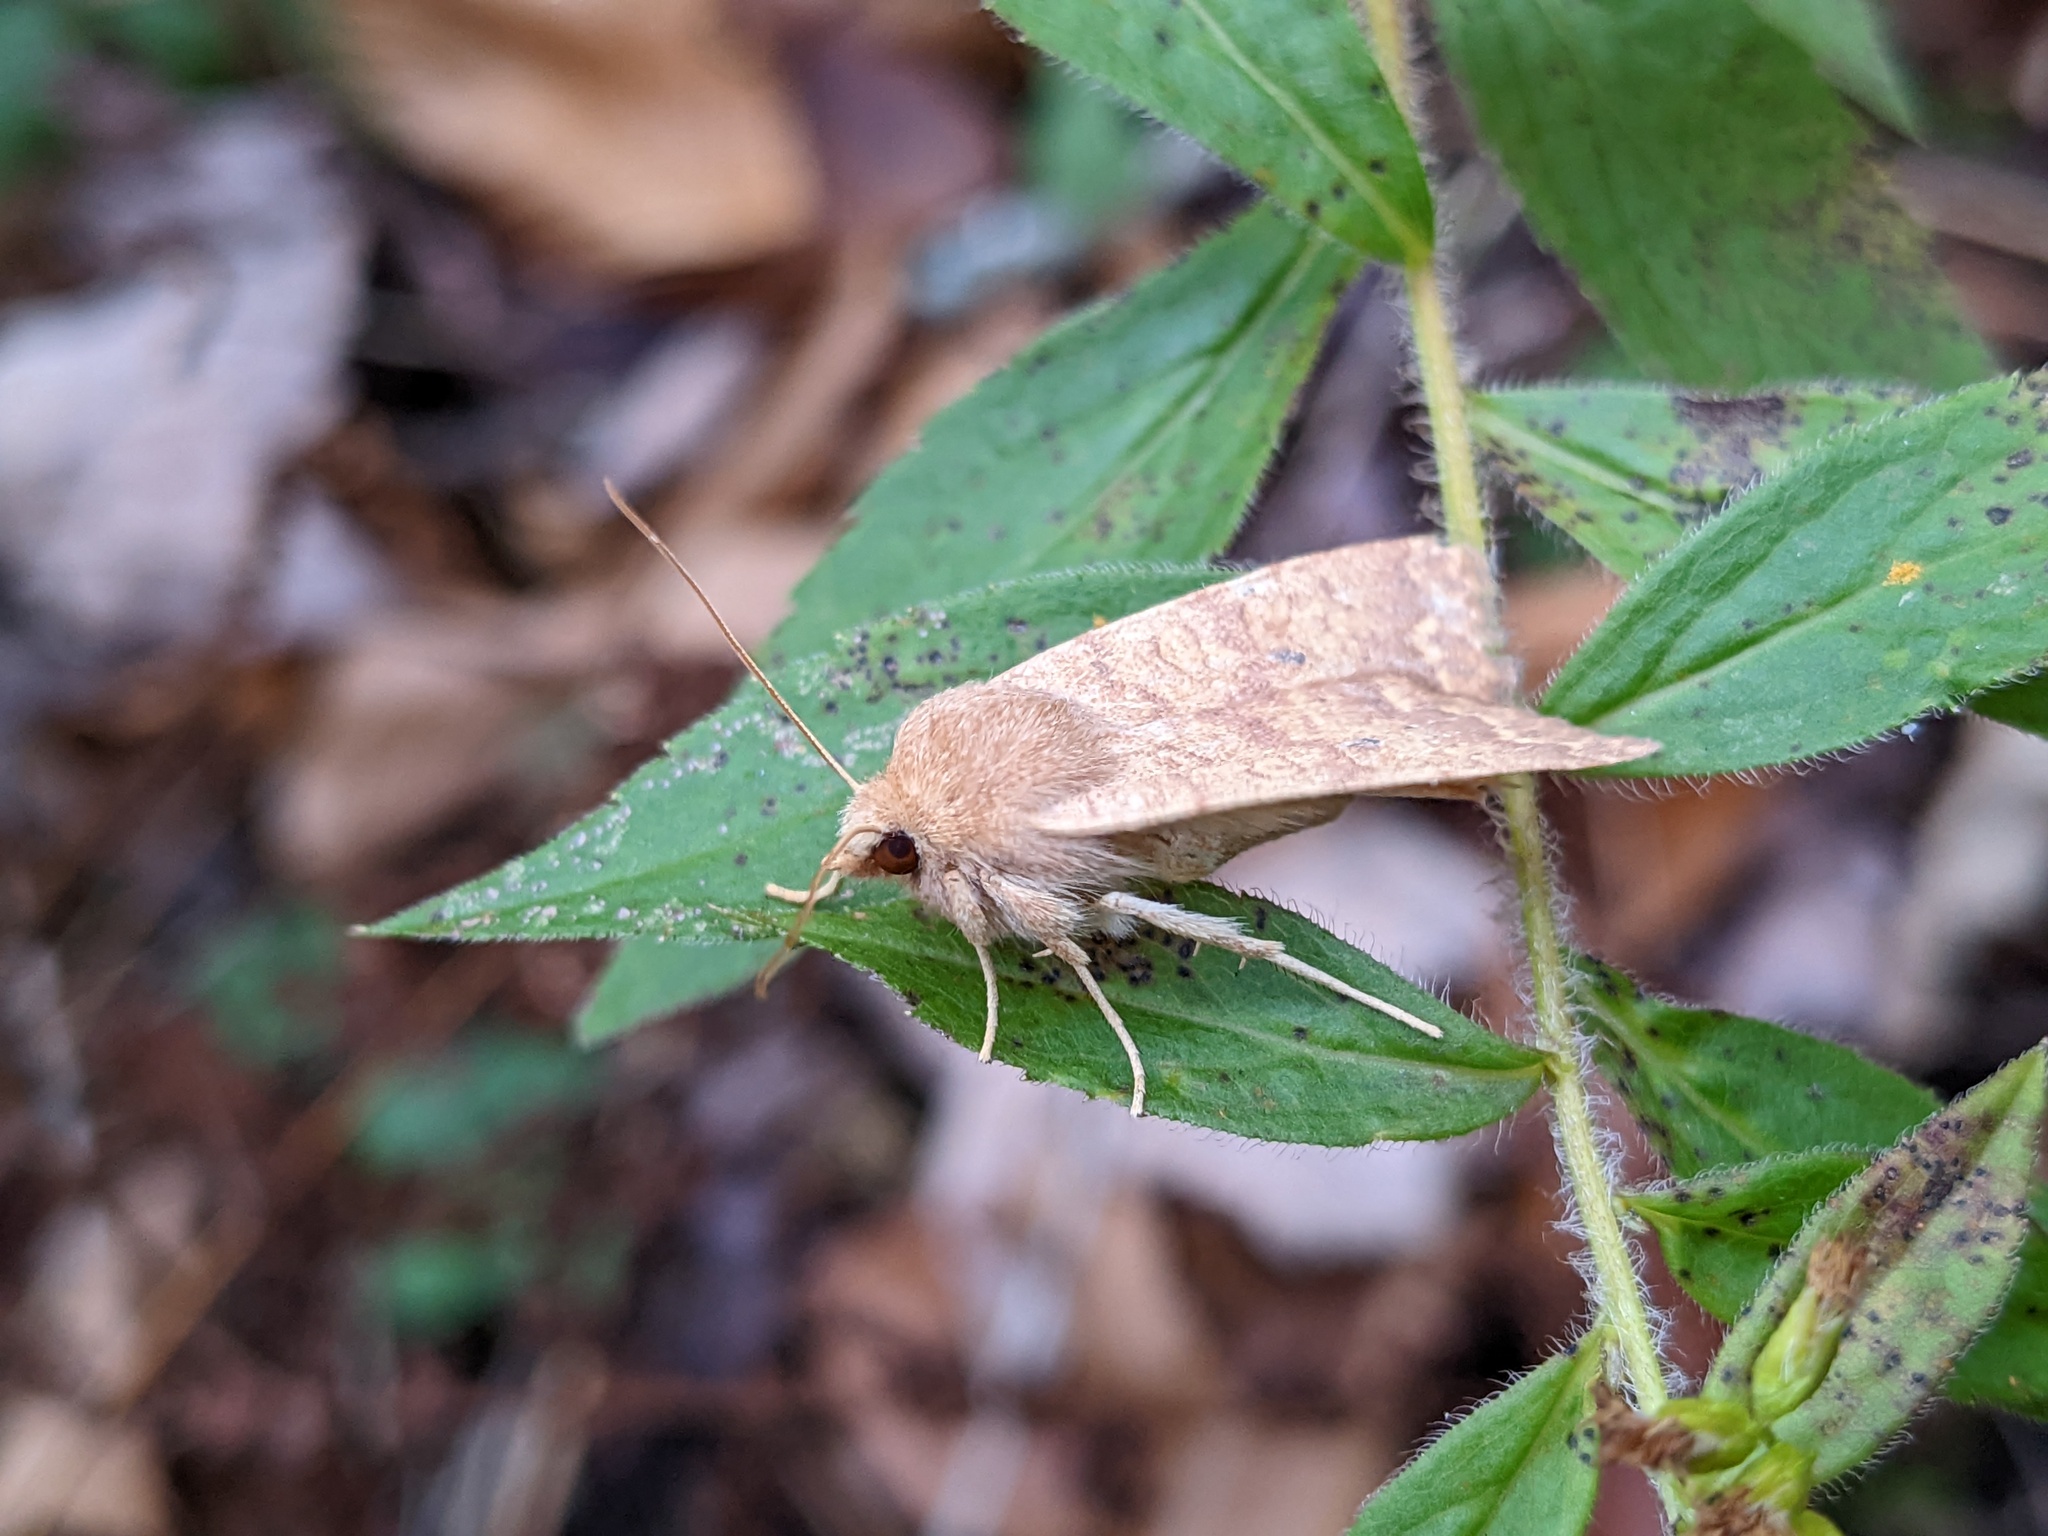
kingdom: Animalia
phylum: Arthropoda
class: Insecta
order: Lepidoptera
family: Noctuidae
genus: Agrochola
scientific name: Agrochola bicolorago
